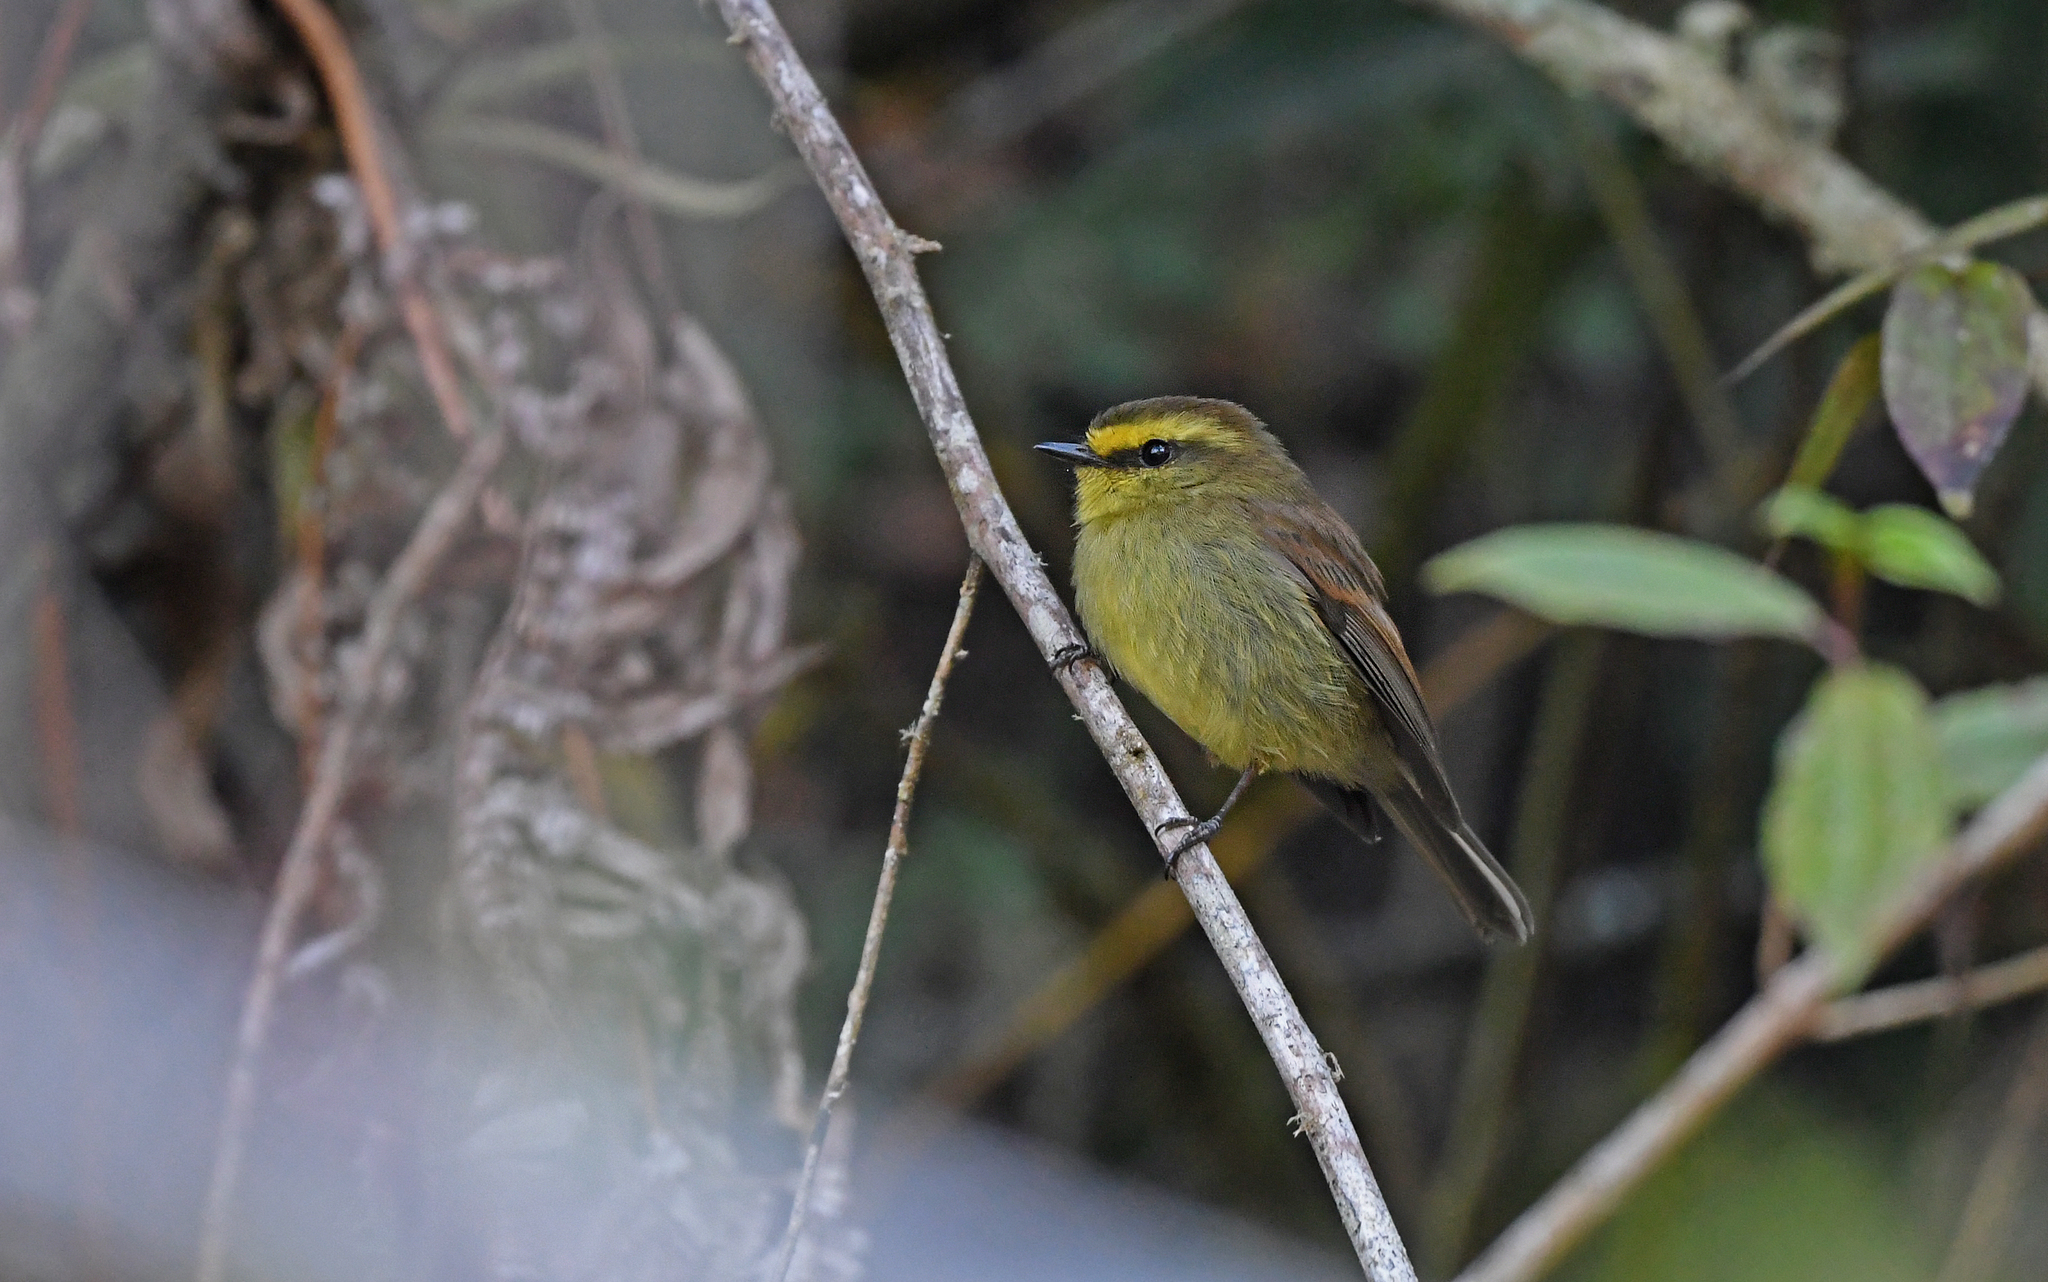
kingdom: Animalia
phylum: Chordata
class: Aves
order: Passeriformes
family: Tyrannidae
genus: Ochthoeca
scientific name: Ochthoeca diadema
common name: Yellow-bellied chat-tyrant
